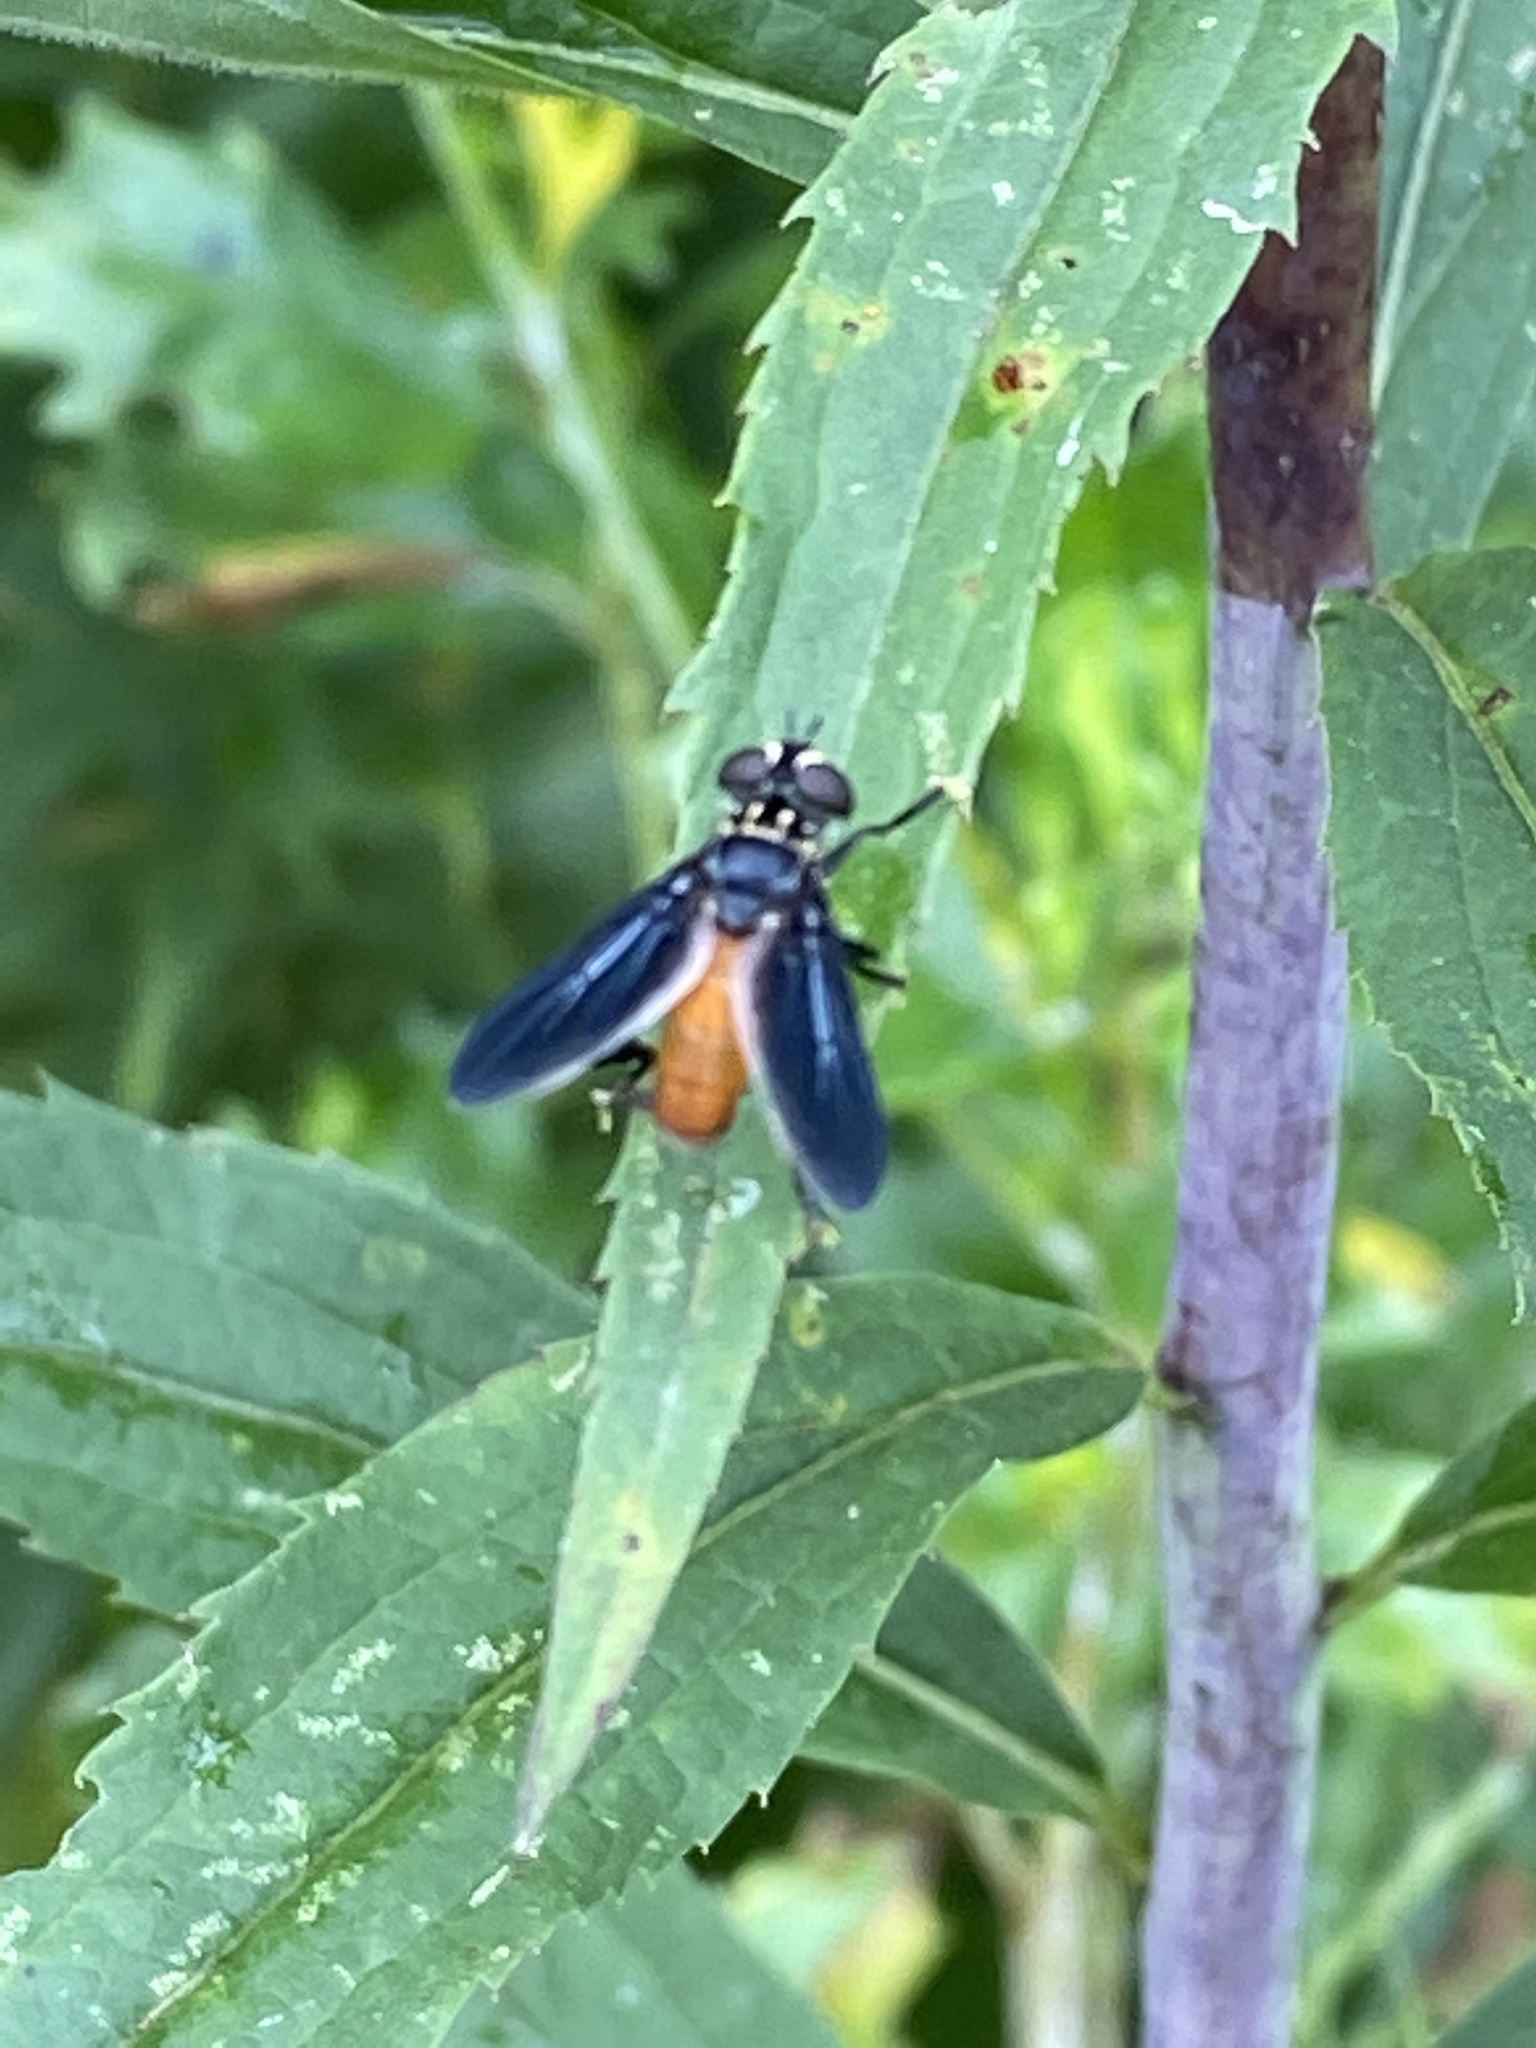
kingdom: Animalia
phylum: Arthropoda
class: Insecta
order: Diptera
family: Tachinidae
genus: Trichopoda
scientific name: Trichopoda pennipes
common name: Tachinid fly
